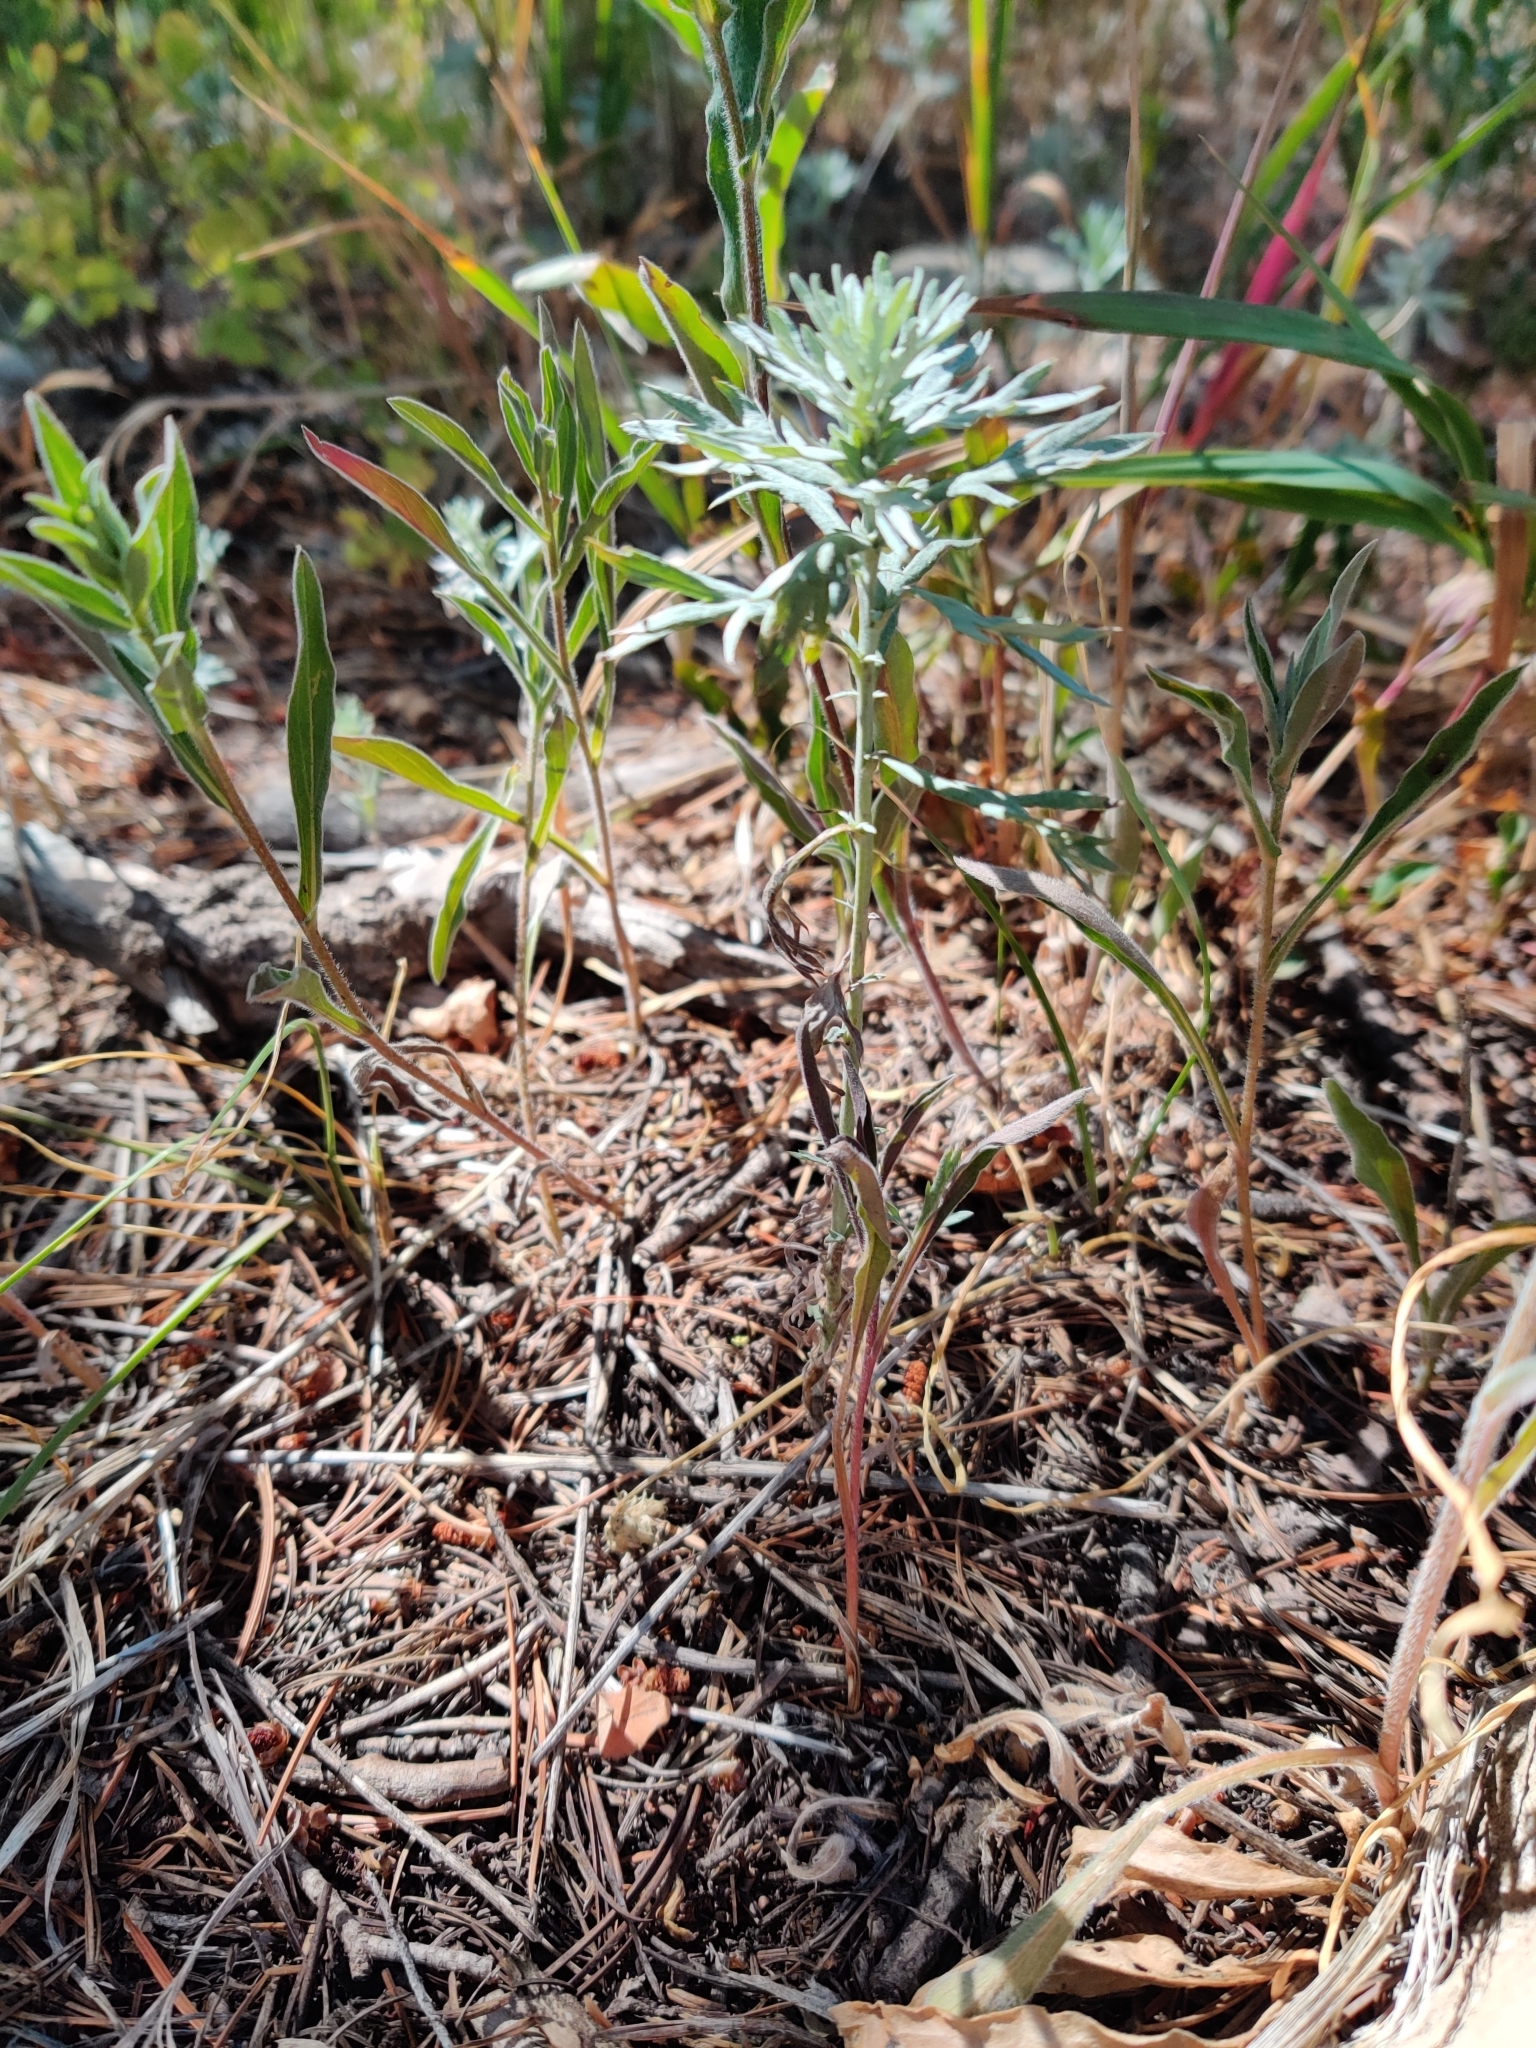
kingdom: Plantae
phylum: Tracheophyta
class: Magnoliopsida
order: Asterales
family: Asteraceae
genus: Artemisia
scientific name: Artemisia ludoviciana
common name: Western mugwort
